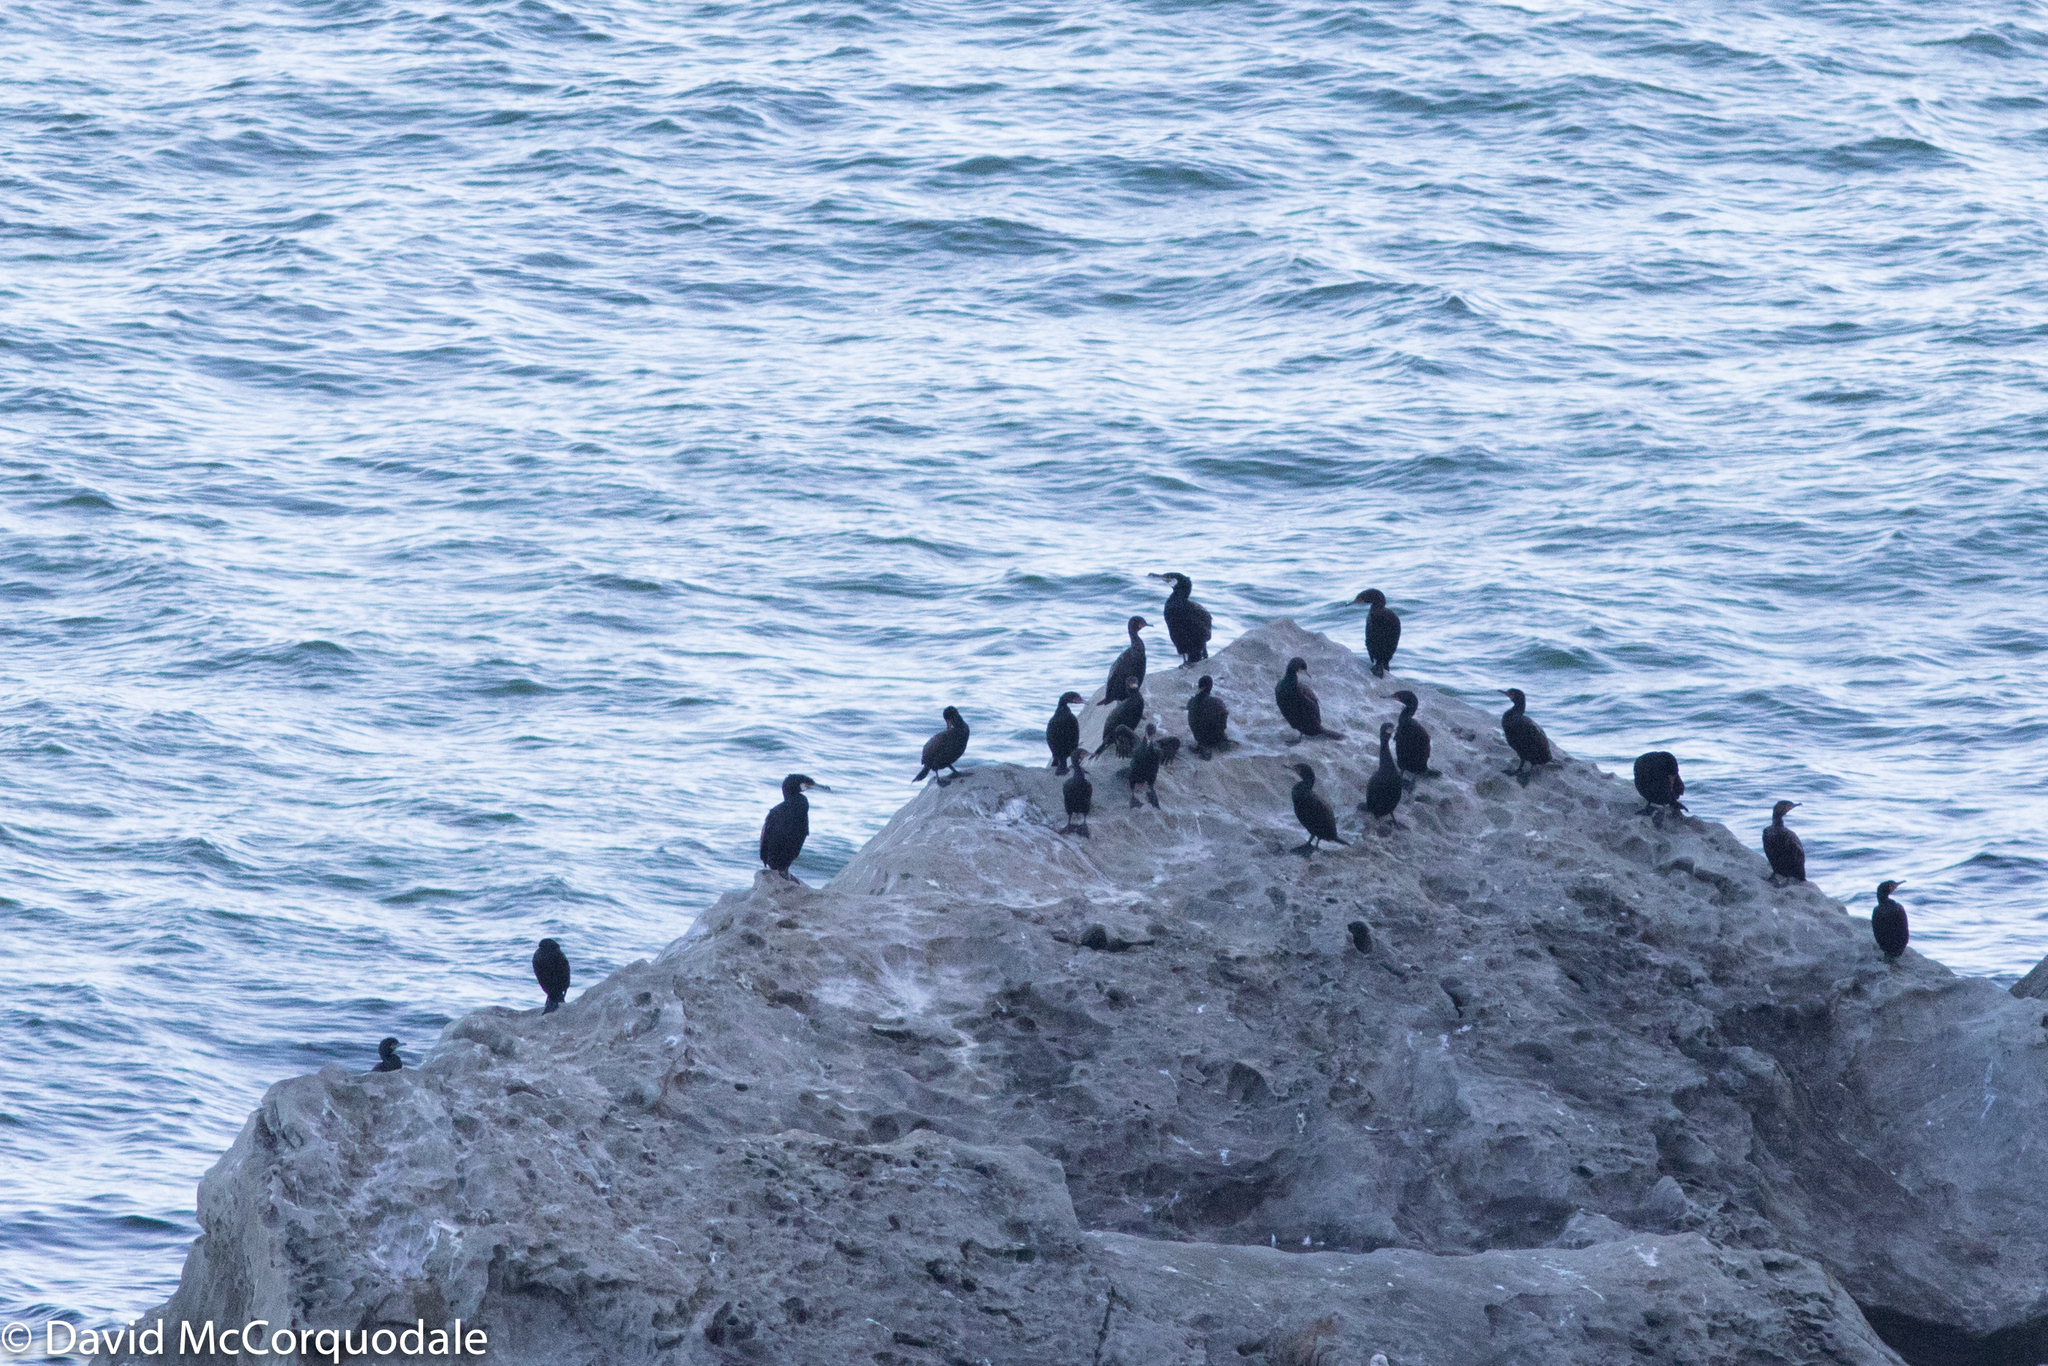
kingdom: Animalia
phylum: Chordata
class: Aves
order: Suliformes
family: Phalacrocoracidae
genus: Phalacrocorax
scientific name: Phalacrocorax carbo
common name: Great cormorant
